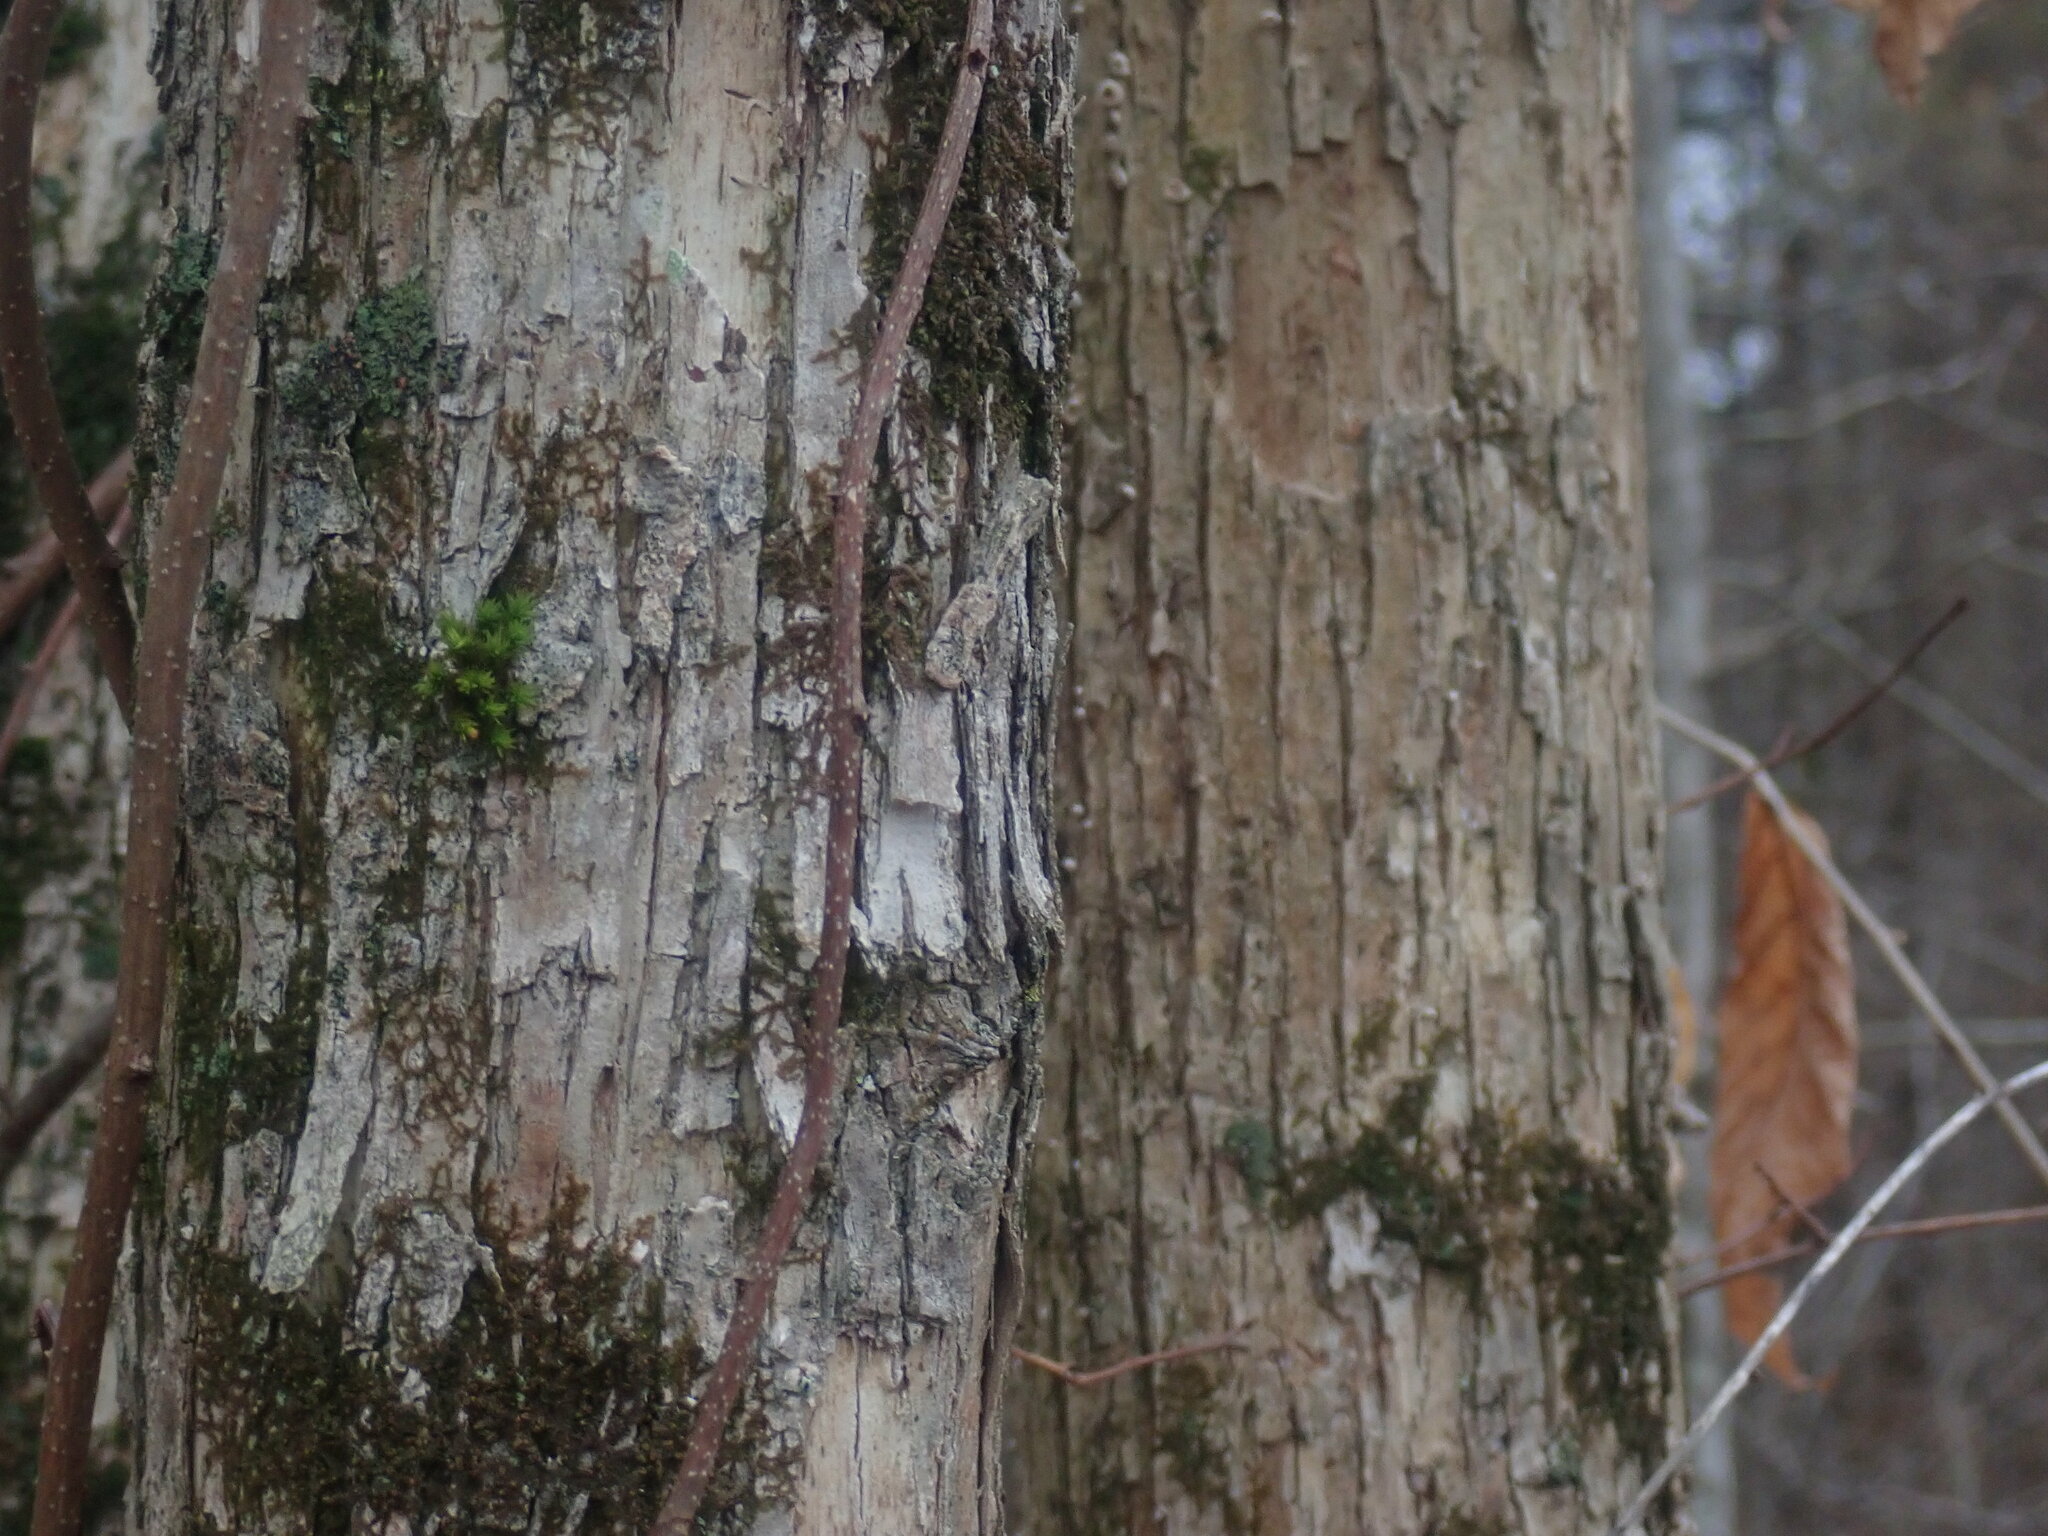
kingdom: Plantae
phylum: Tracheophyta
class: Magnoliopsida
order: Fagales
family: Betulaceae
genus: Ostrya
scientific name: Ostrya virginiana
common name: Ironwood
